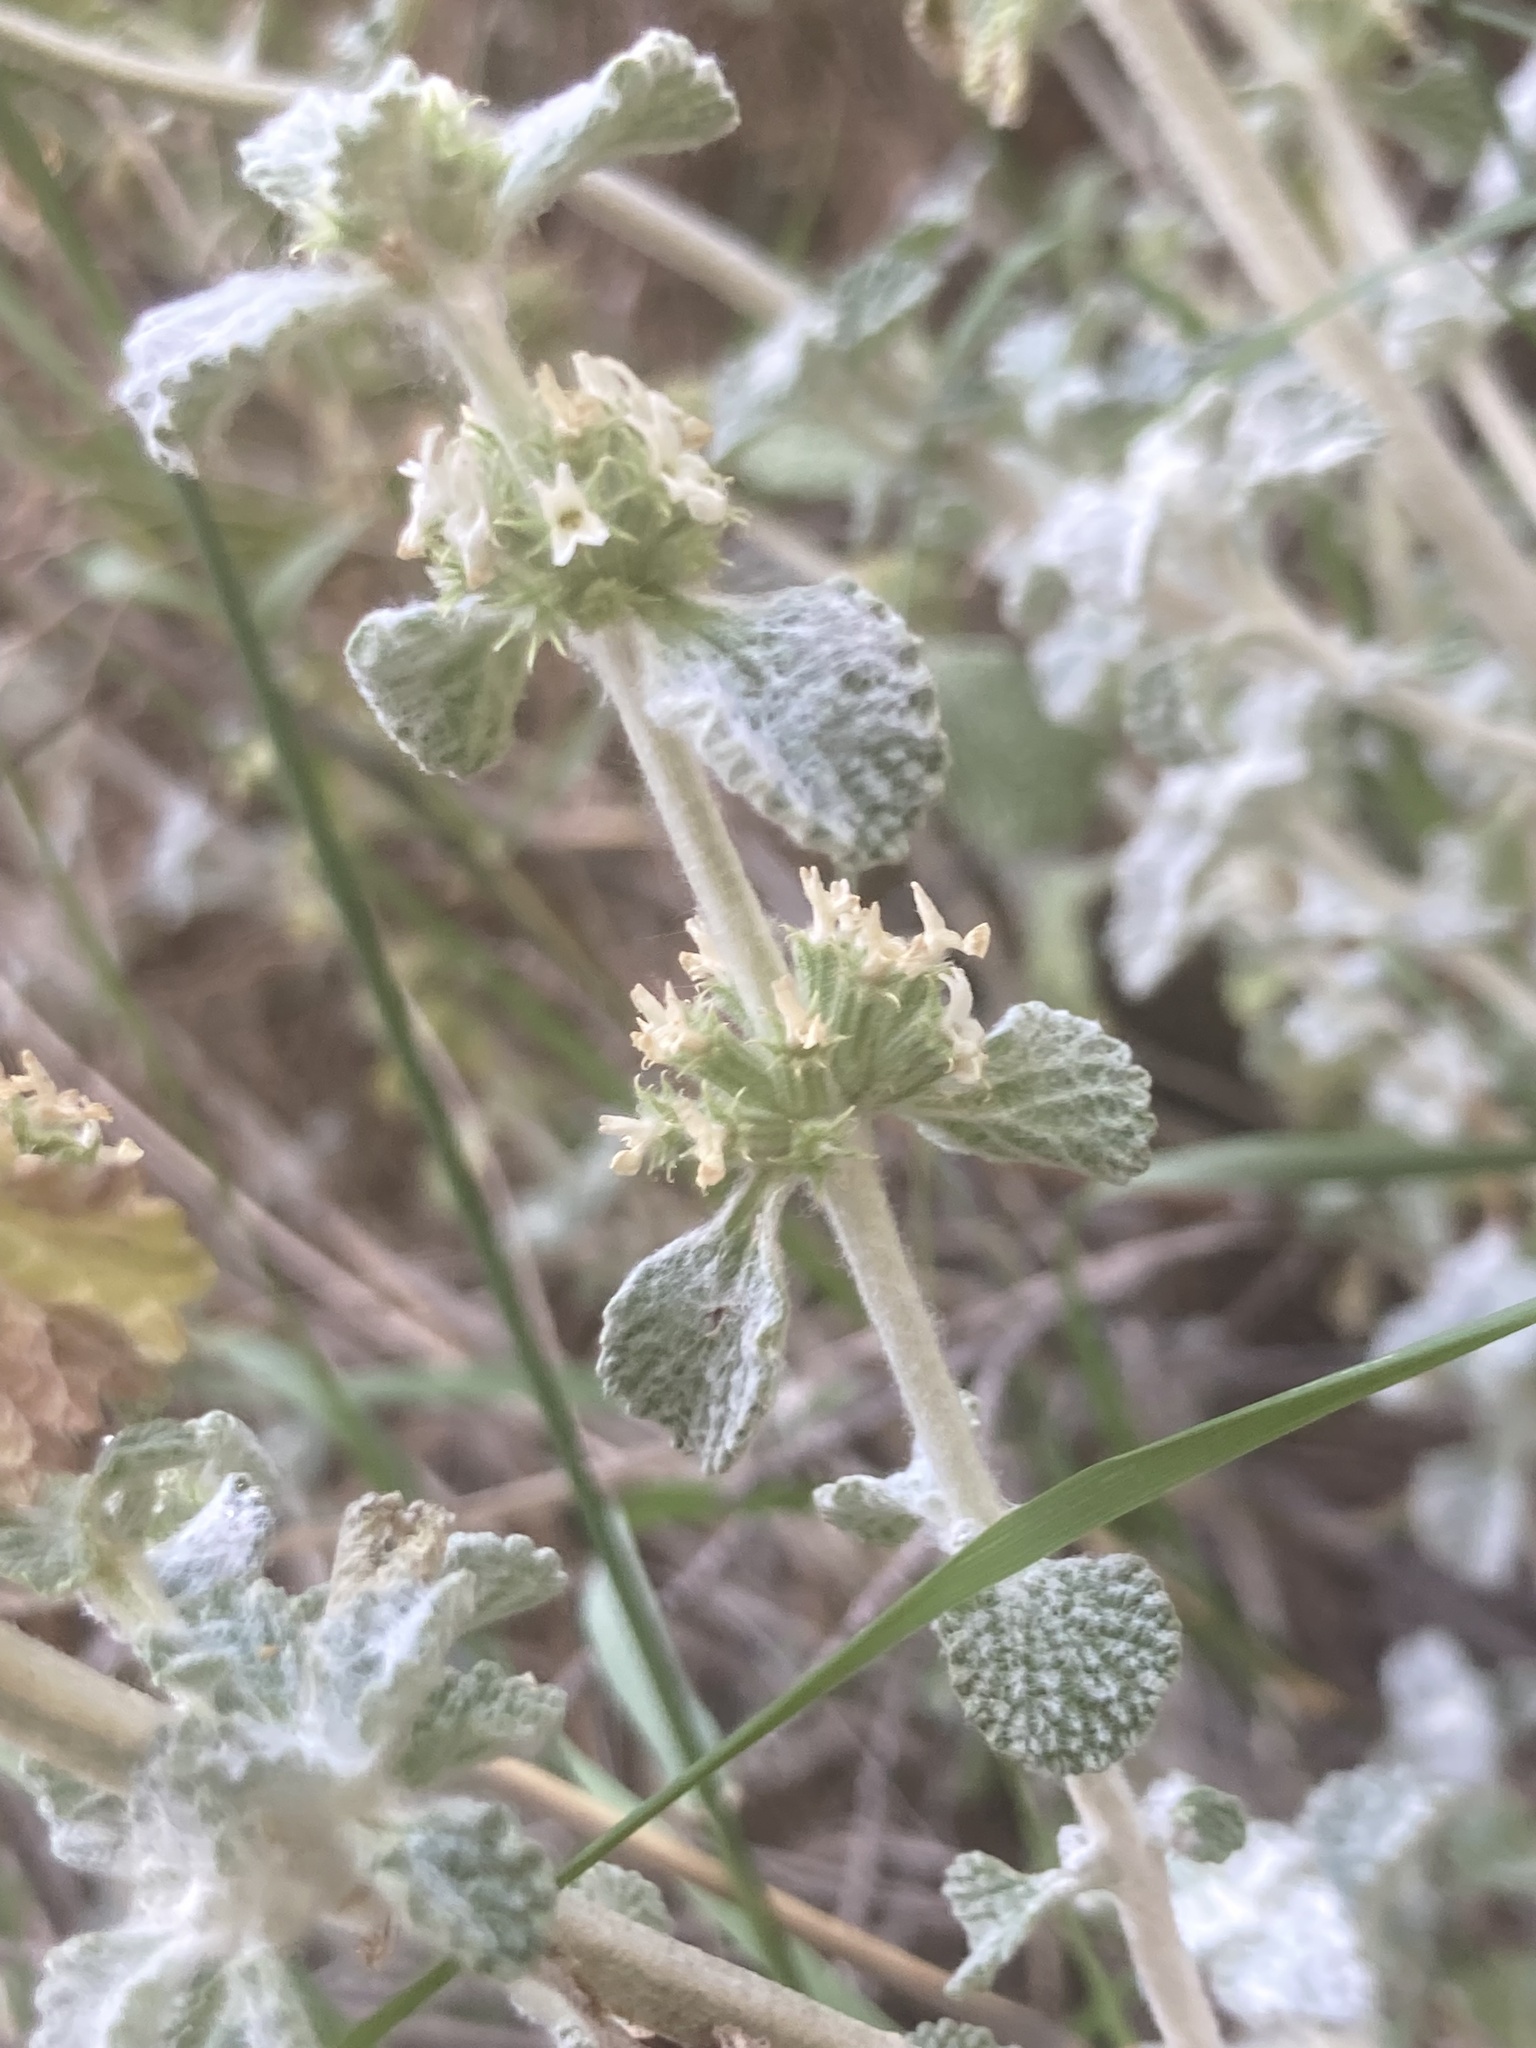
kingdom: Plantae
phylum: Tracheophyta
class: Magnoliopsida
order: Lamiales
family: Lamiaceae
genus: Marrubium
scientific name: Marrubium vulgare
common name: Horehound
